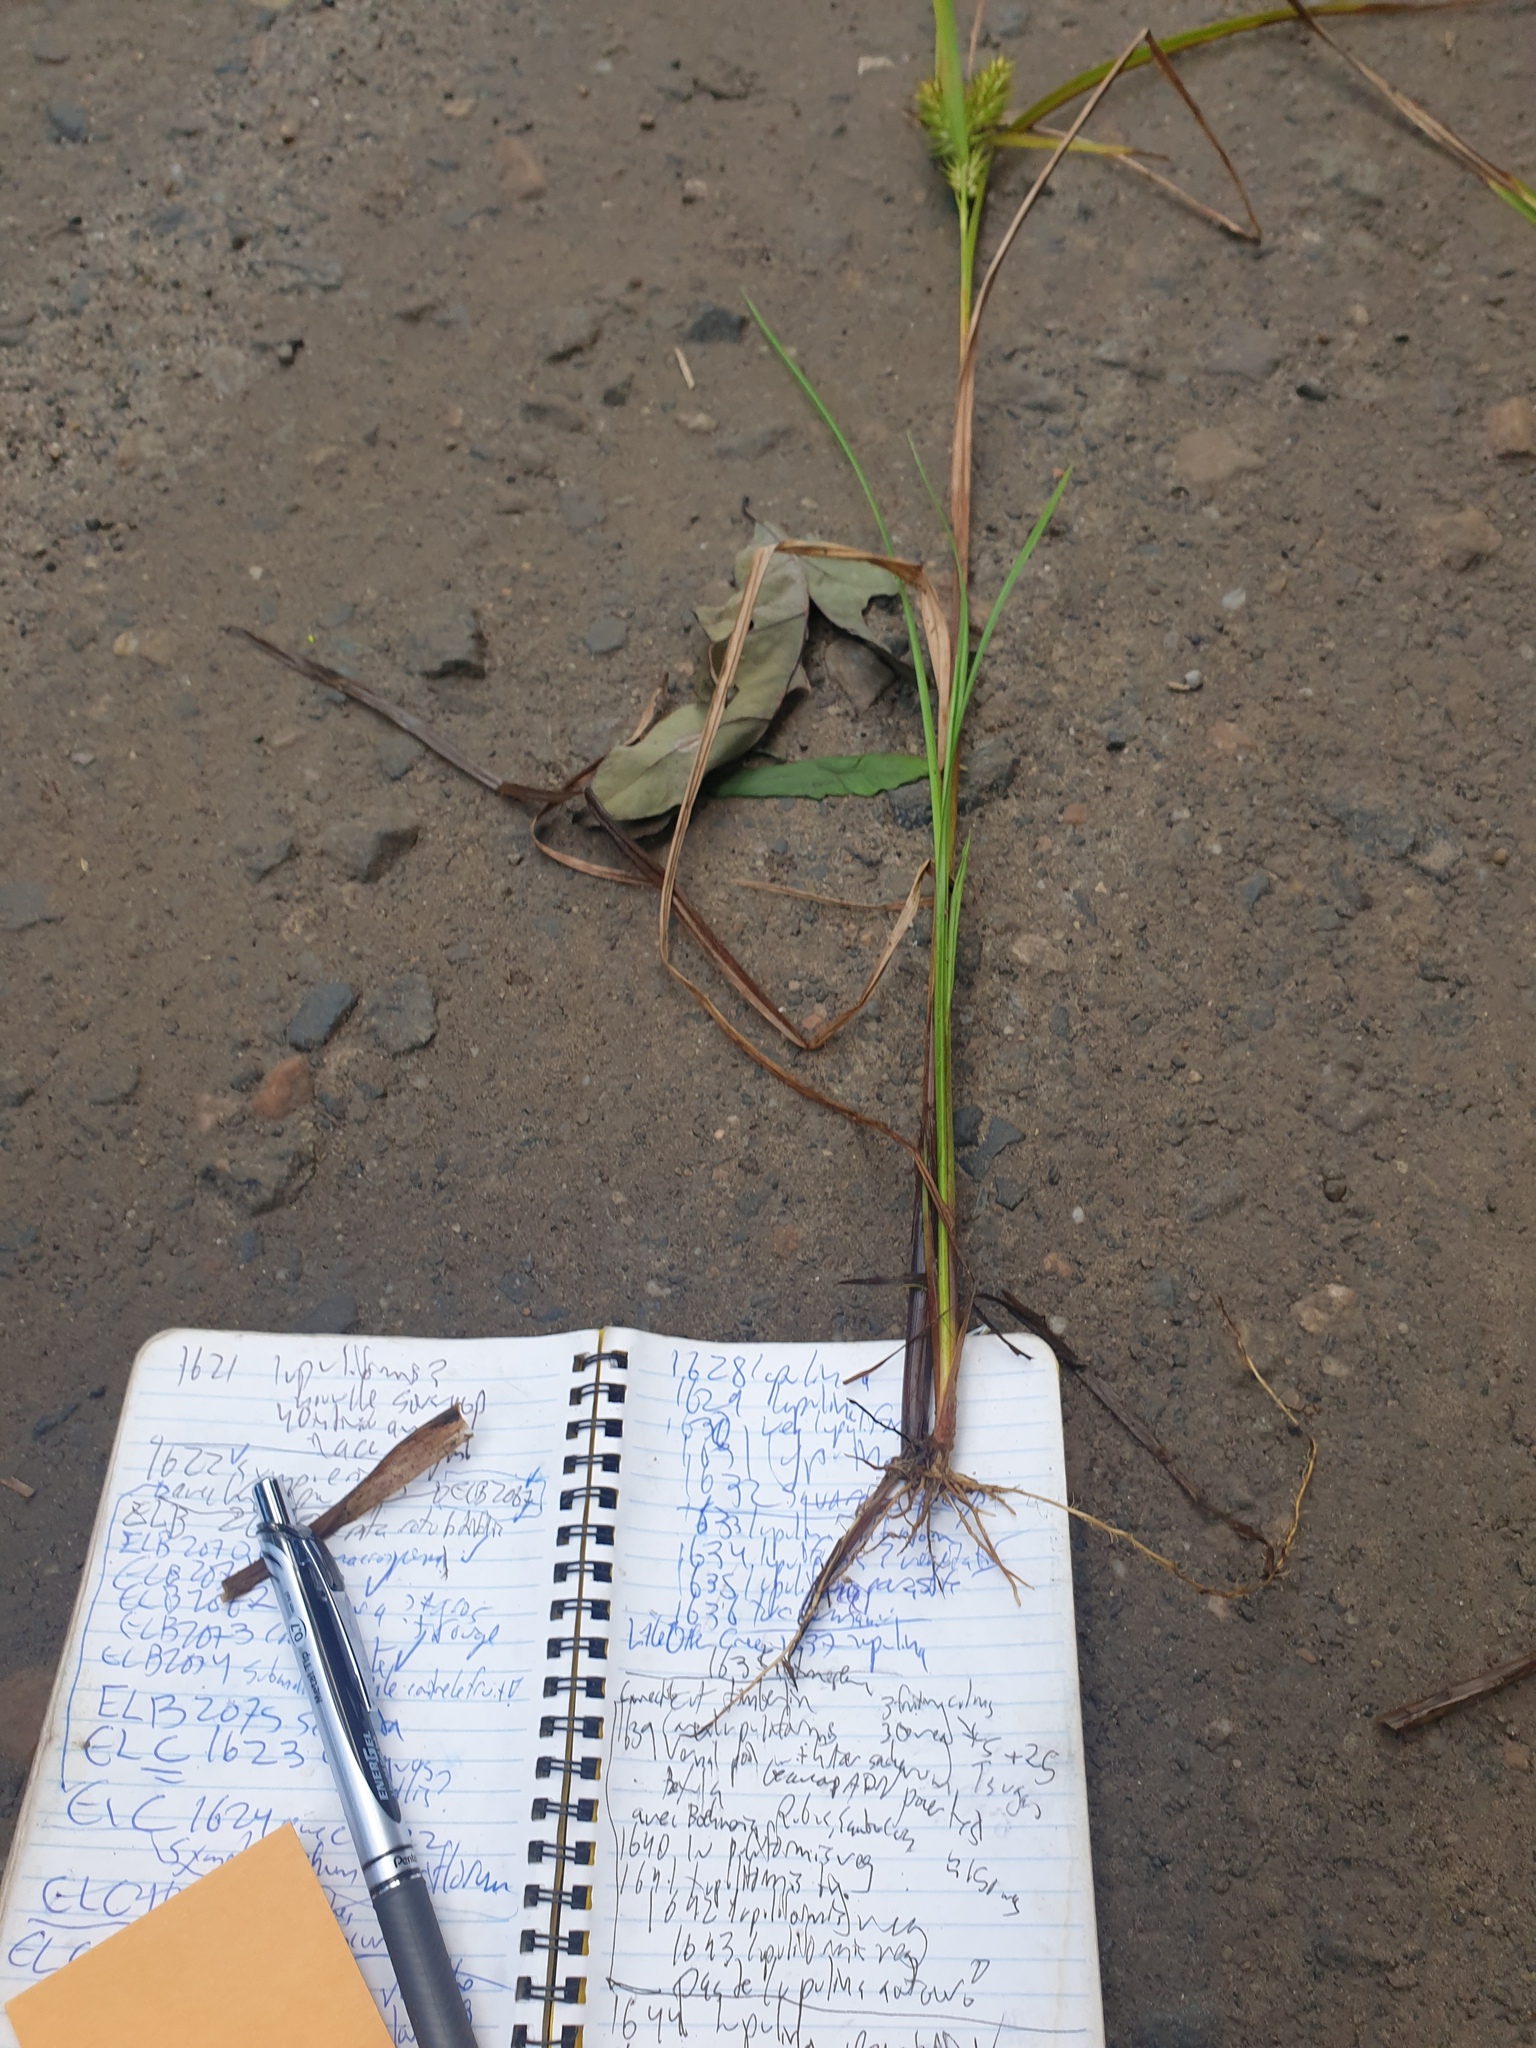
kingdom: Plantae
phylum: Tracheophyta
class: Liliopsida
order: Poales
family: Cyperaceae
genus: Carex
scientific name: Carex lupulina
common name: Hop sedge
